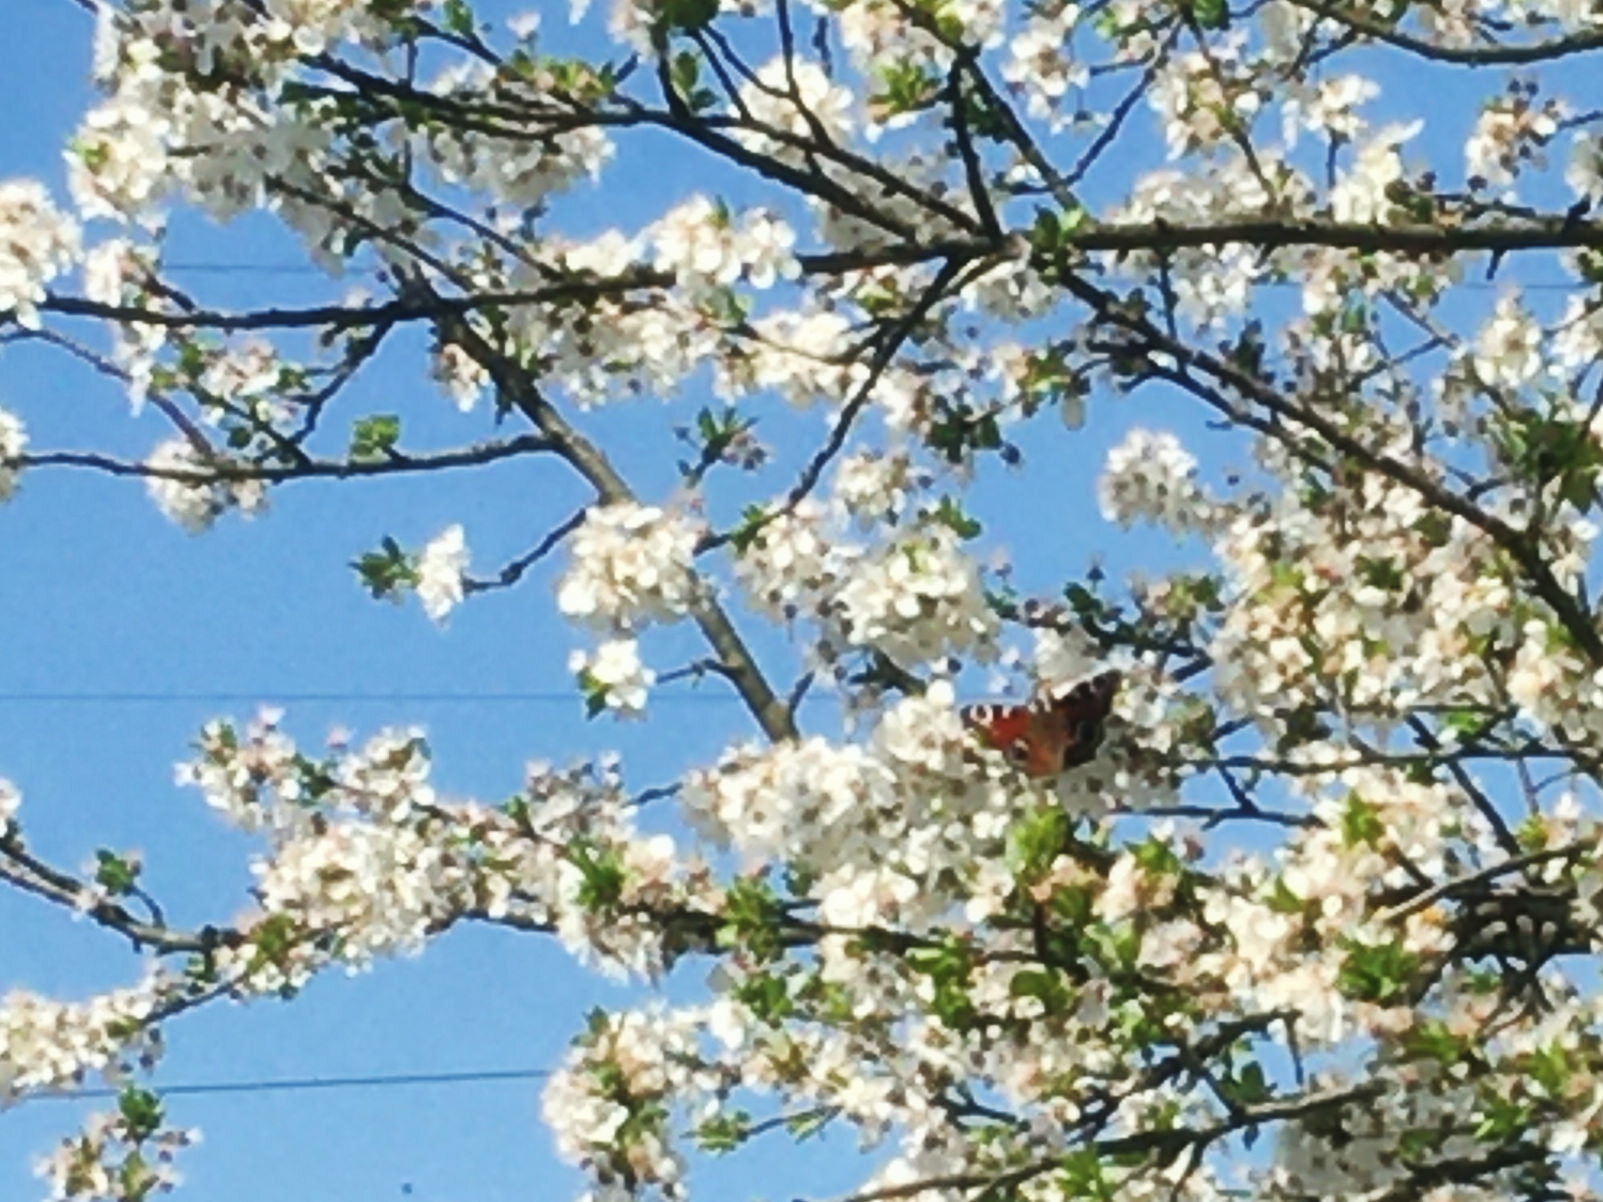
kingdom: Animalia
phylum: Arthropoda
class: Insecta
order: Lepidoptera
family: Nymphalidae
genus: Aglais
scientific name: Aglais io
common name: Peacock
